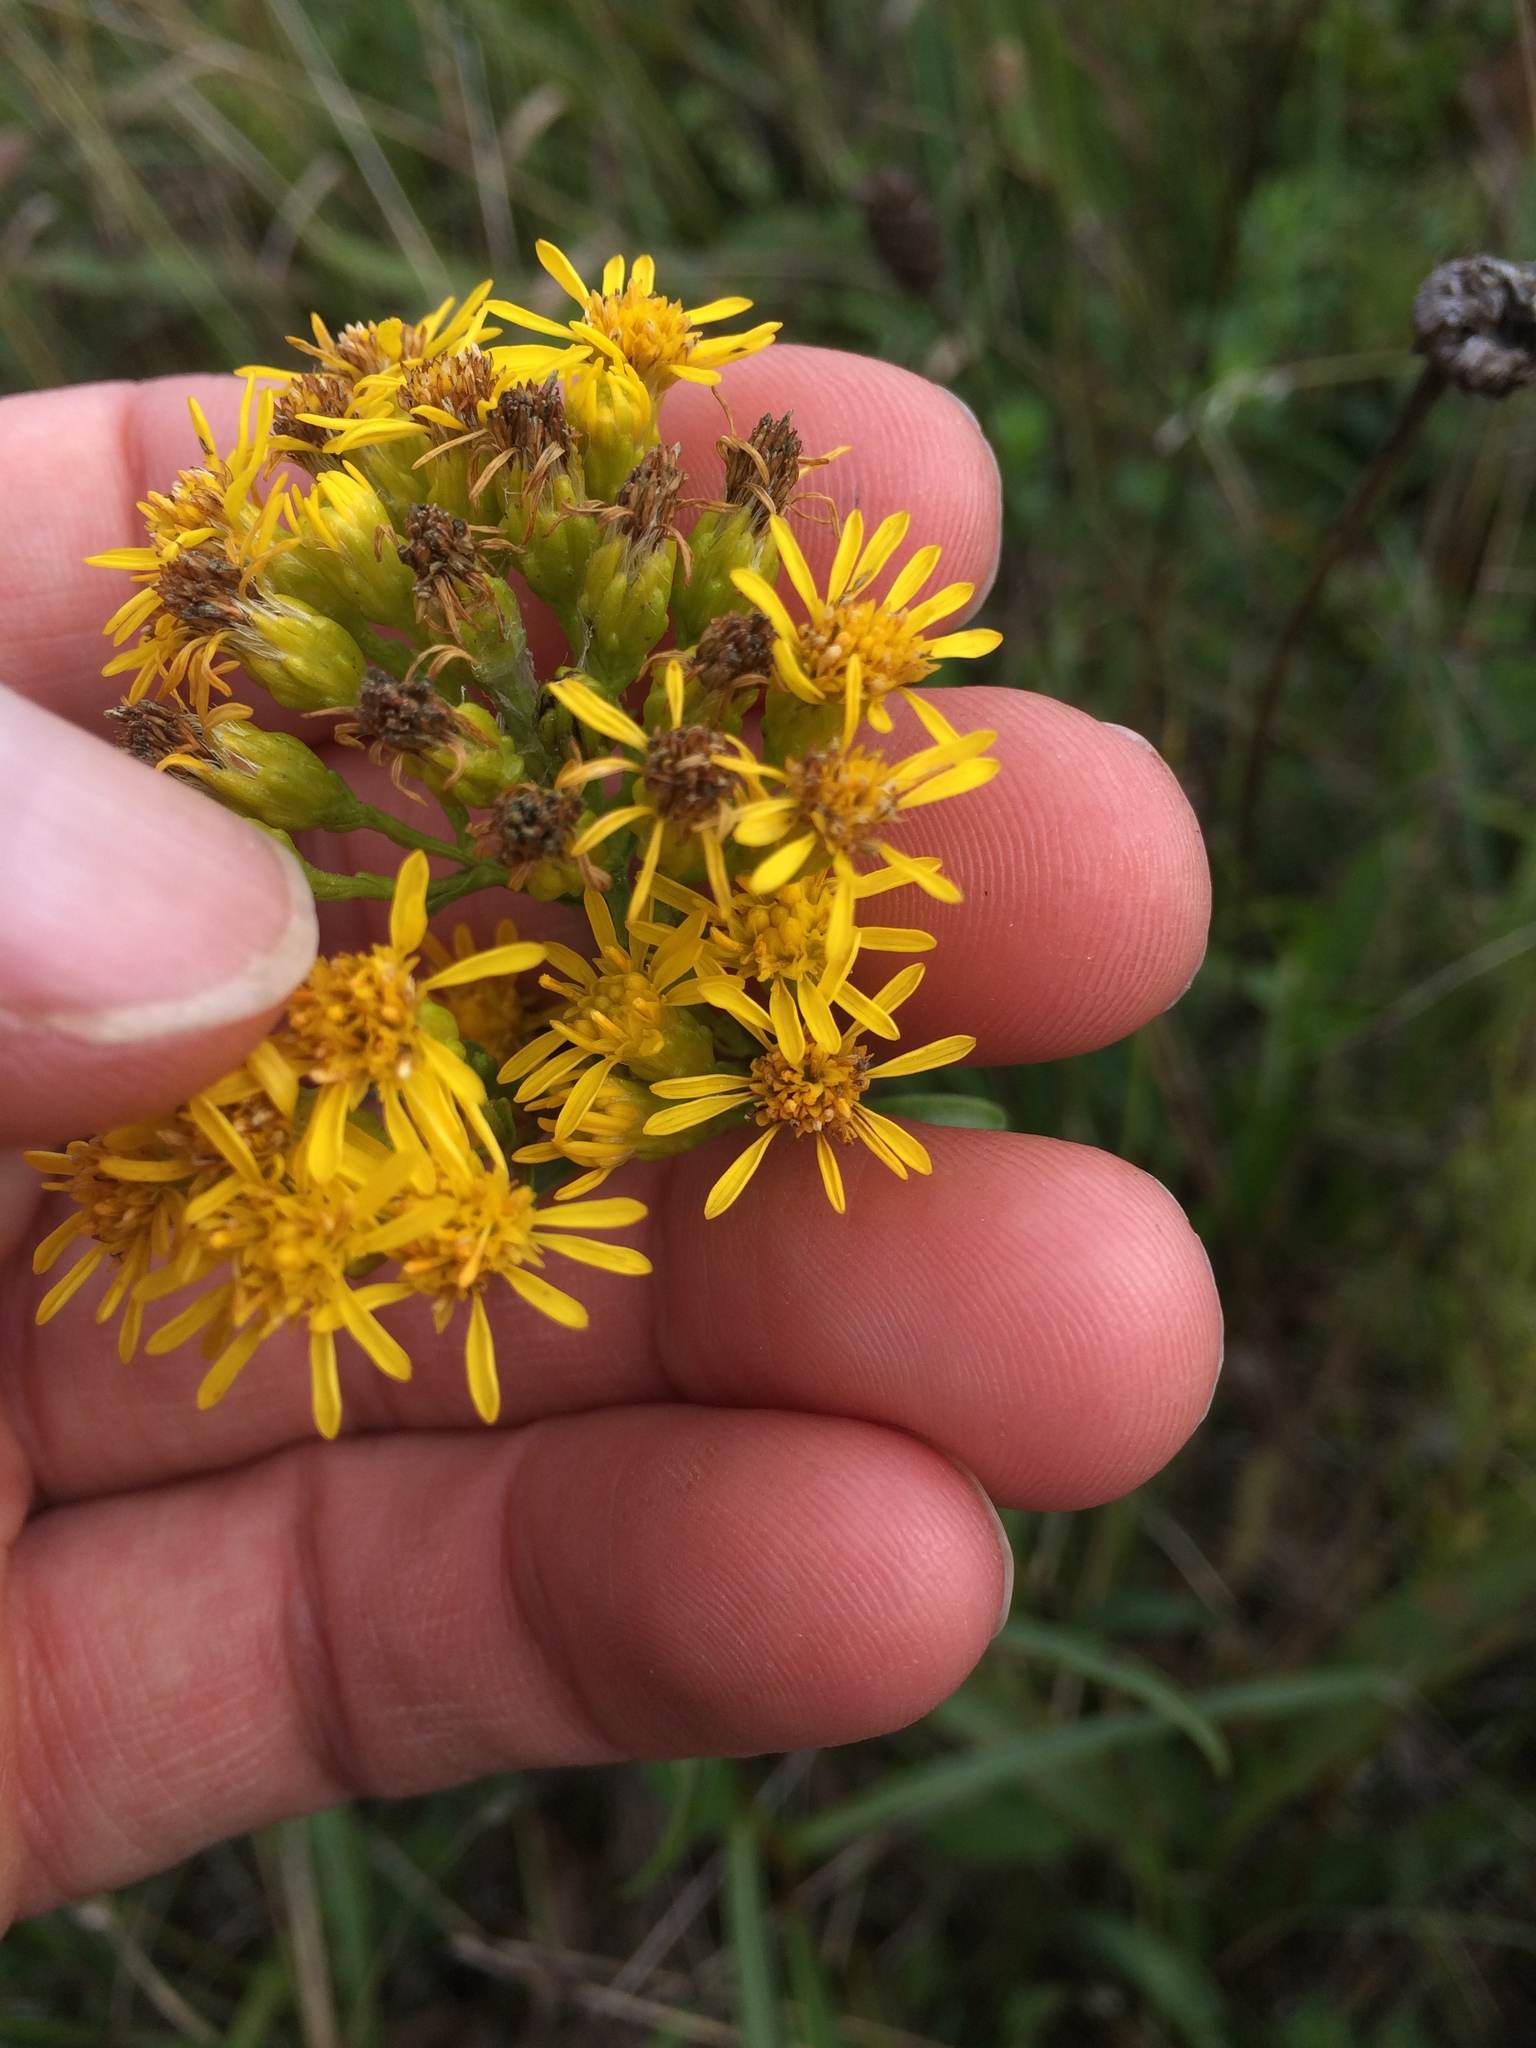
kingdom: Plantae
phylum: Tracheophyta
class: Magnoliopsida
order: Asterales
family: Asteraceae
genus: Solidago
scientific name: Solidago houghtonii
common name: Houghton's goldenrod
